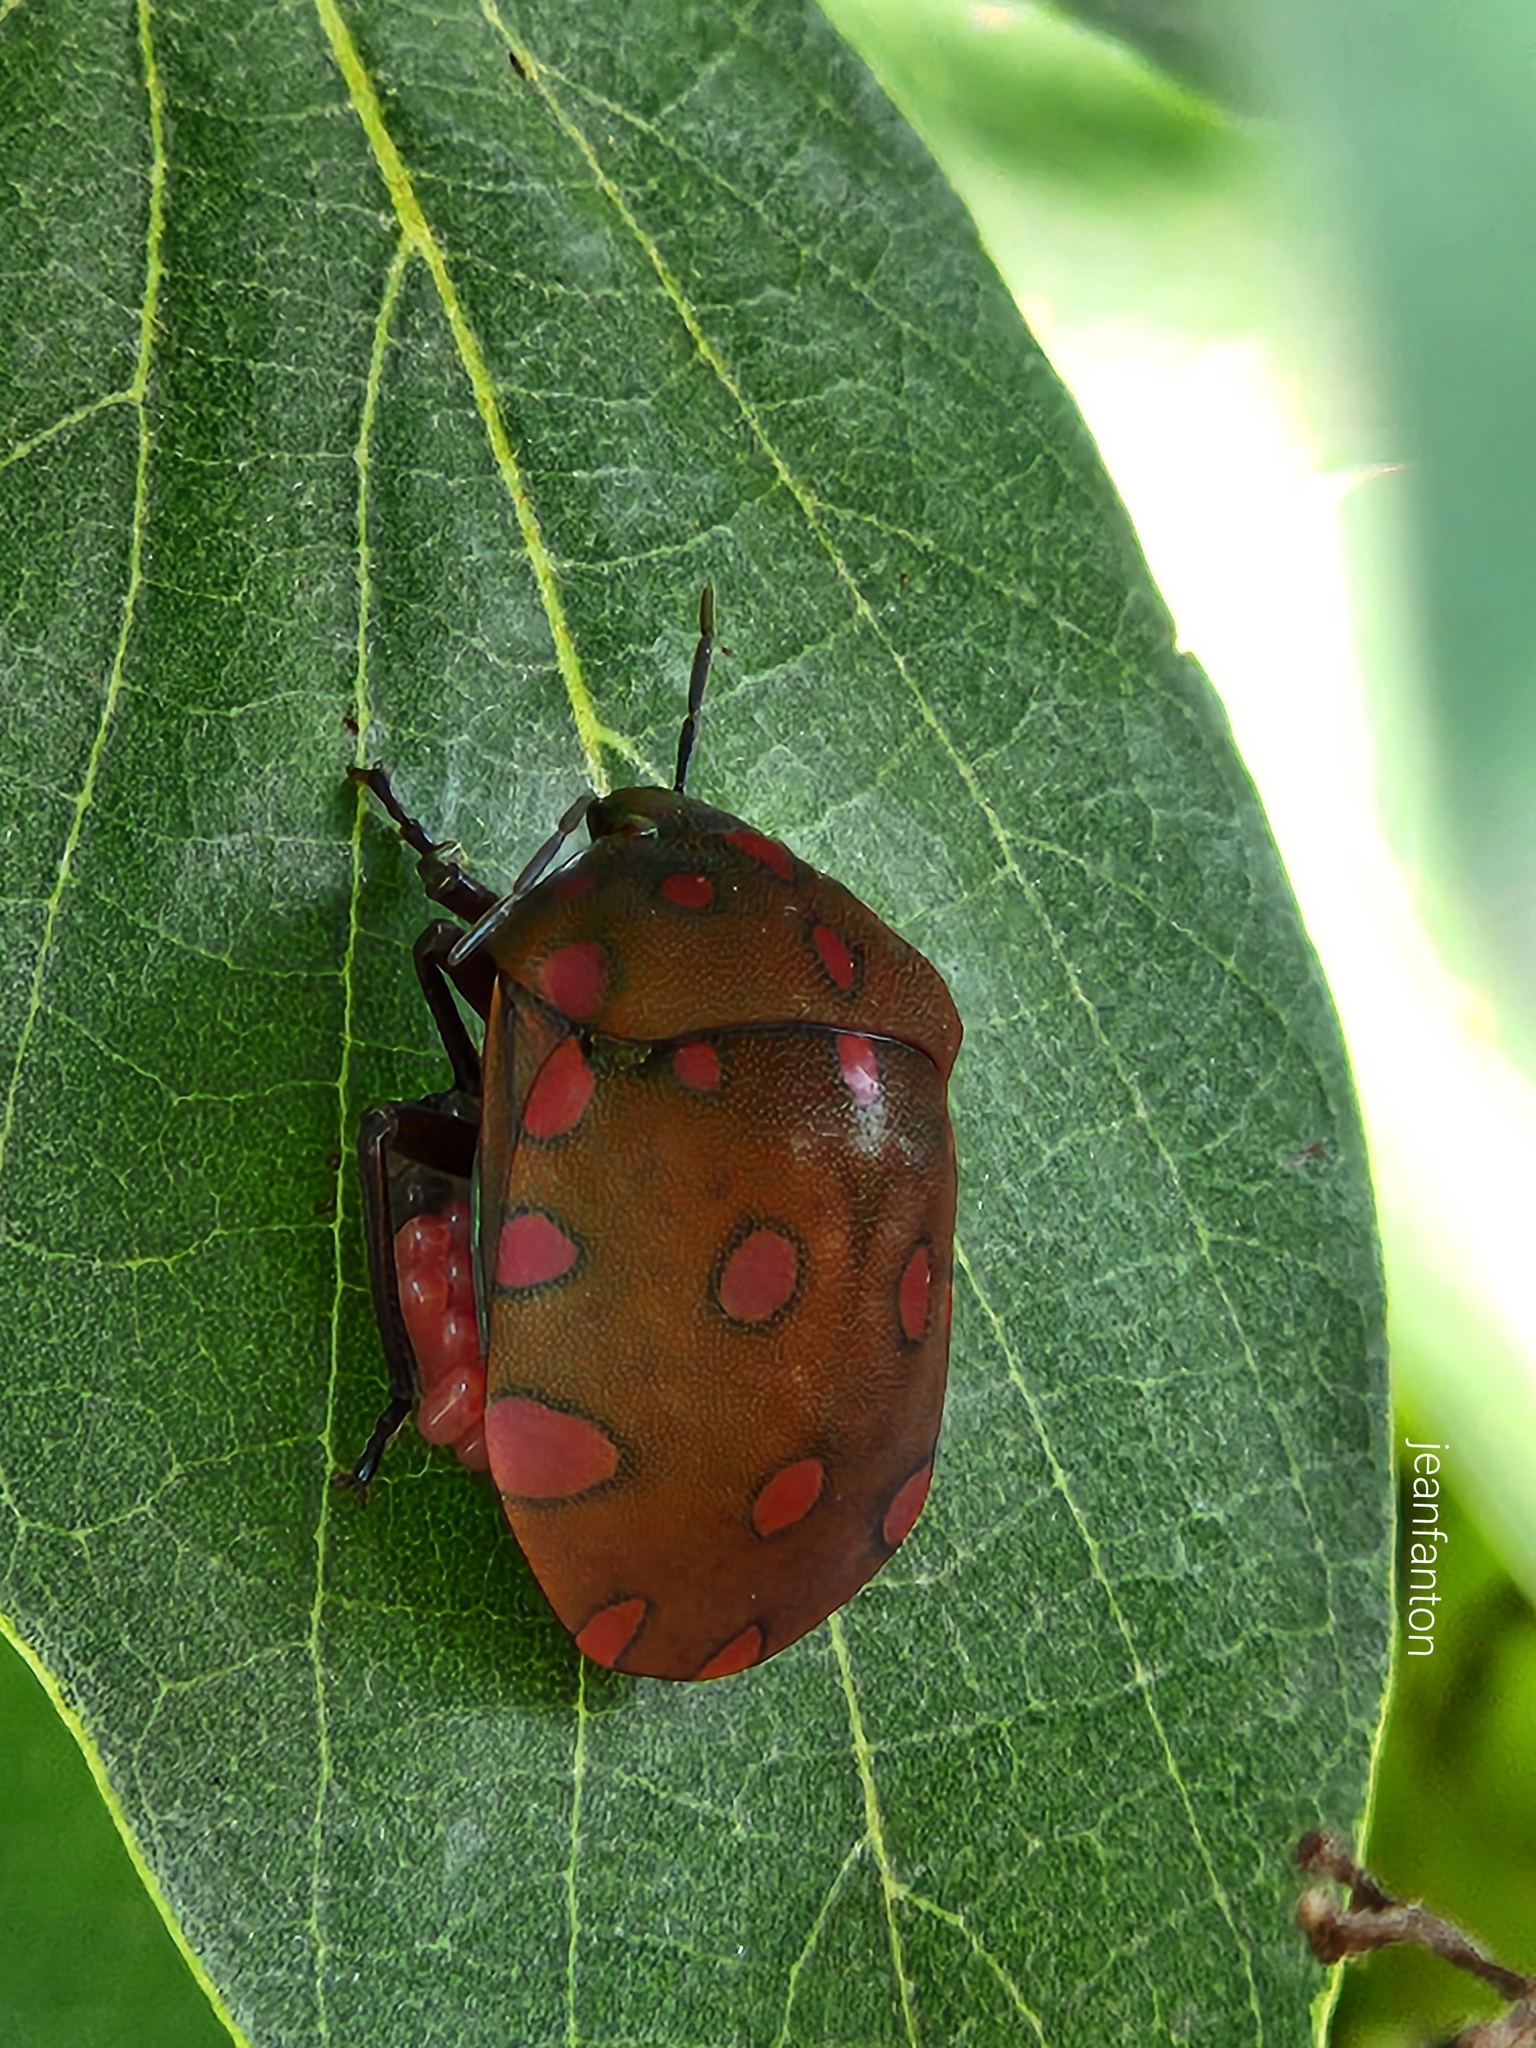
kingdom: Animalia
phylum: Arthropoda
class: Insecta
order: Hemiptera
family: Scutelleridae
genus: Pachycoris
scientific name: Pachycoris torridus
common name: Torrid jewel bug
